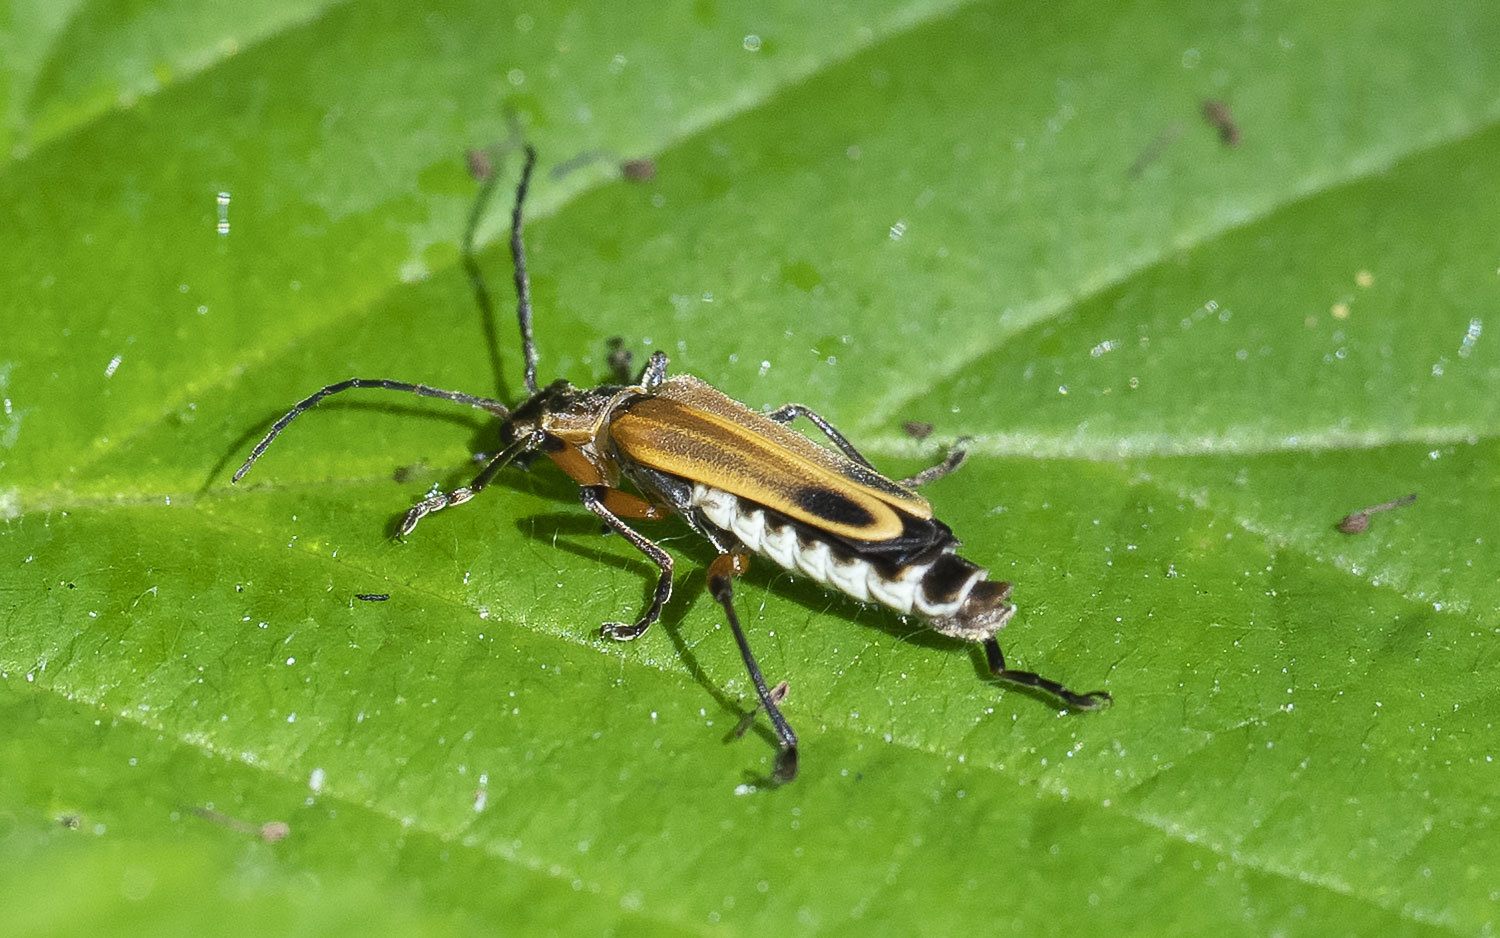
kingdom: Animalia
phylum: Arthropoda
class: Insecta
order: Coleoptera
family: Cantharidae
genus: Chauliognathus
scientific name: Chauliognathus marginatus
